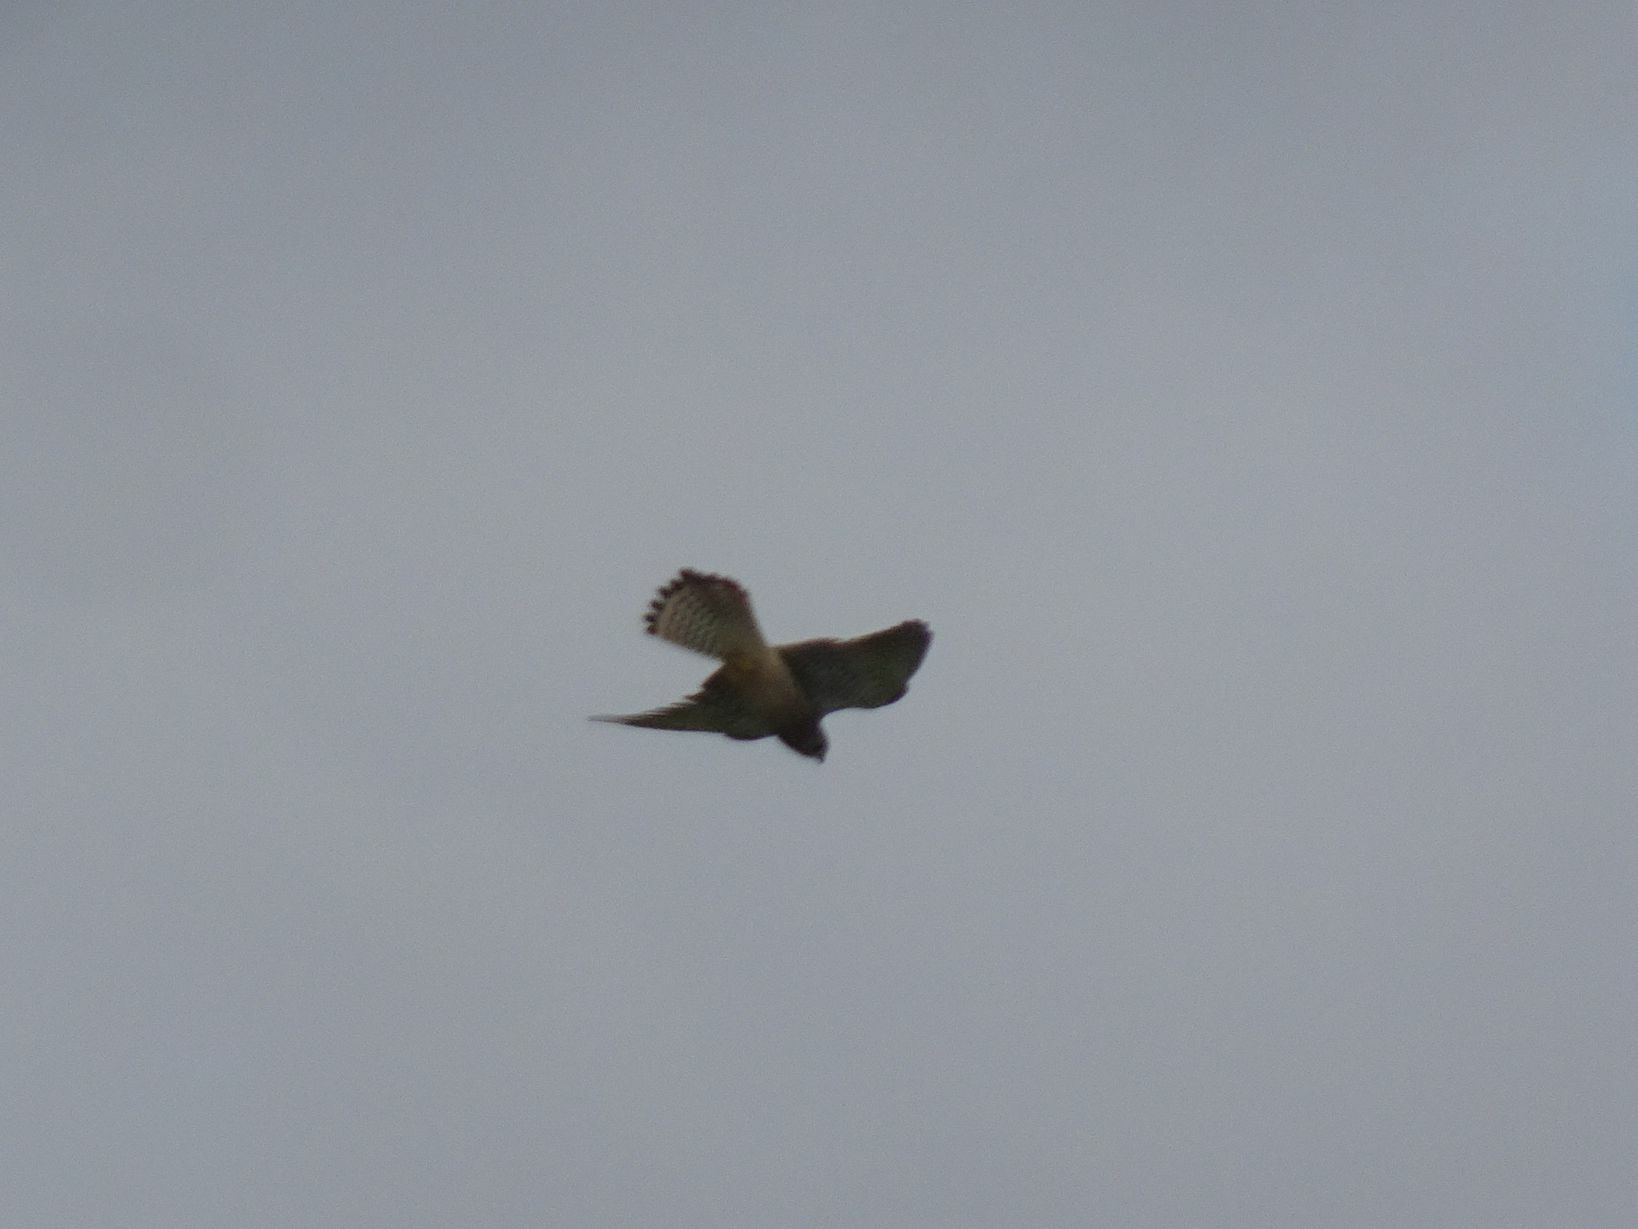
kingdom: Animalia
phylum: Chordata
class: Aves
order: Falconiformes
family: Falconidae
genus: Falco
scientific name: Falco tinnunculus
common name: Common kestrel
